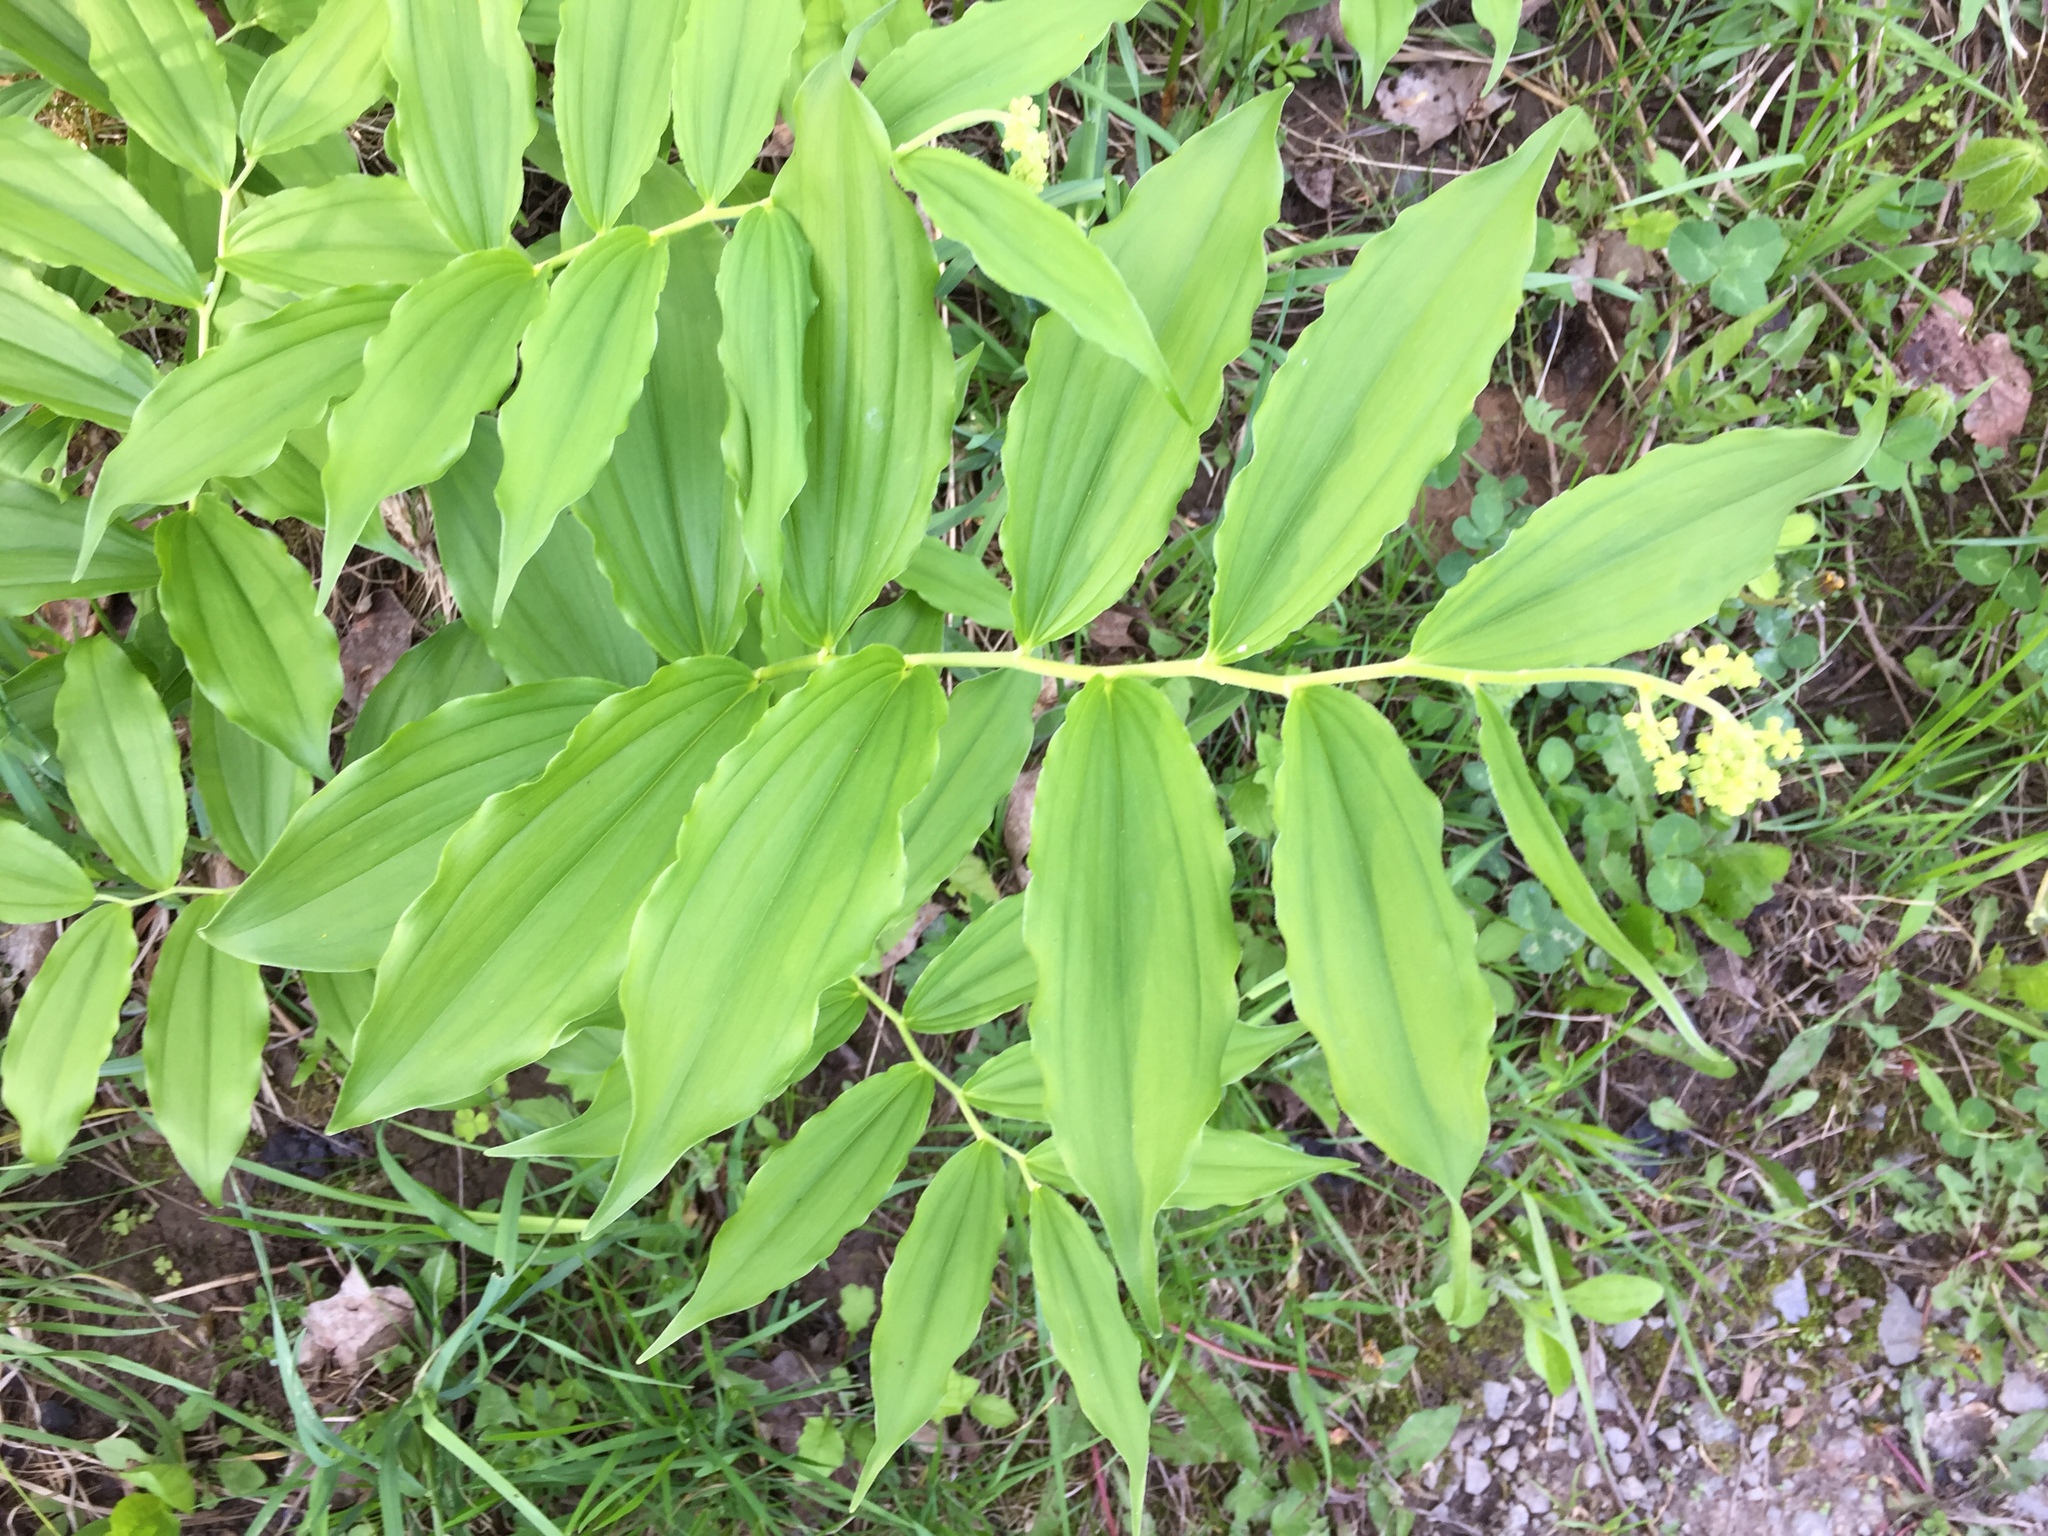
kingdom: Plantae
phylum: Tracheophyta
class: Liliopsida
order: Asparagales
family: Asparagaceae
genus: Maianthemum
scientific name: Maianthemum racemosum
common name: False spikenard
